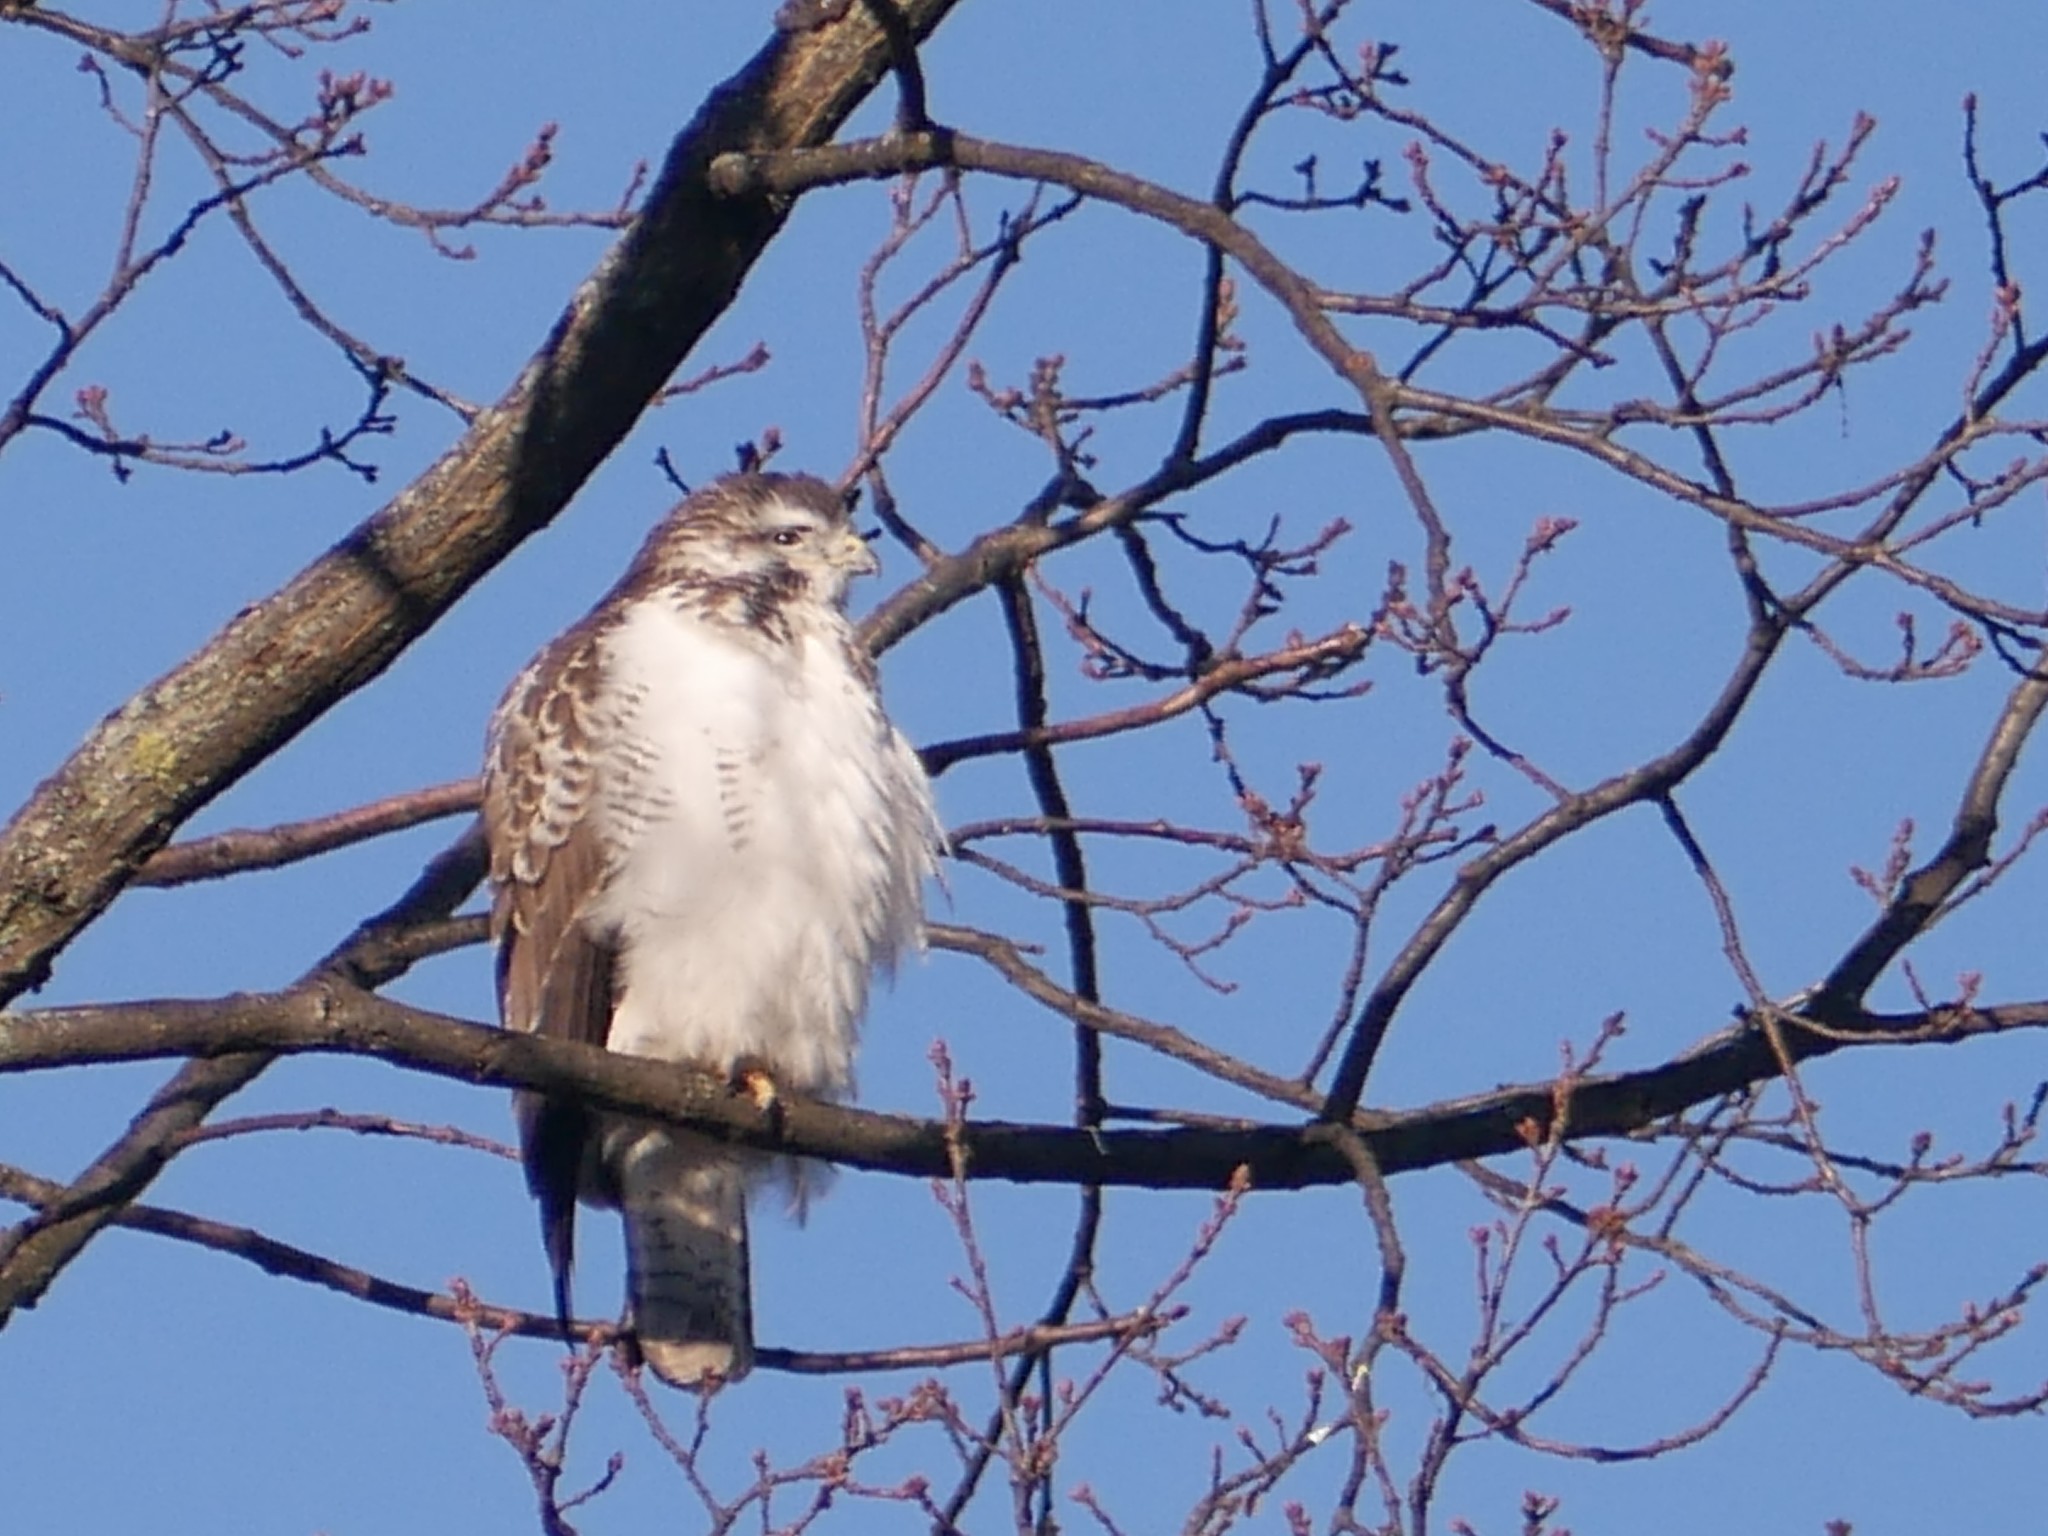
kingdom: Animalia
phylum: Chordata
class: Aves
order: Accipitriformes
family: Accipitridae
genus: Buteo
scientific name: Buteo buteo
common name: Common buzzard
